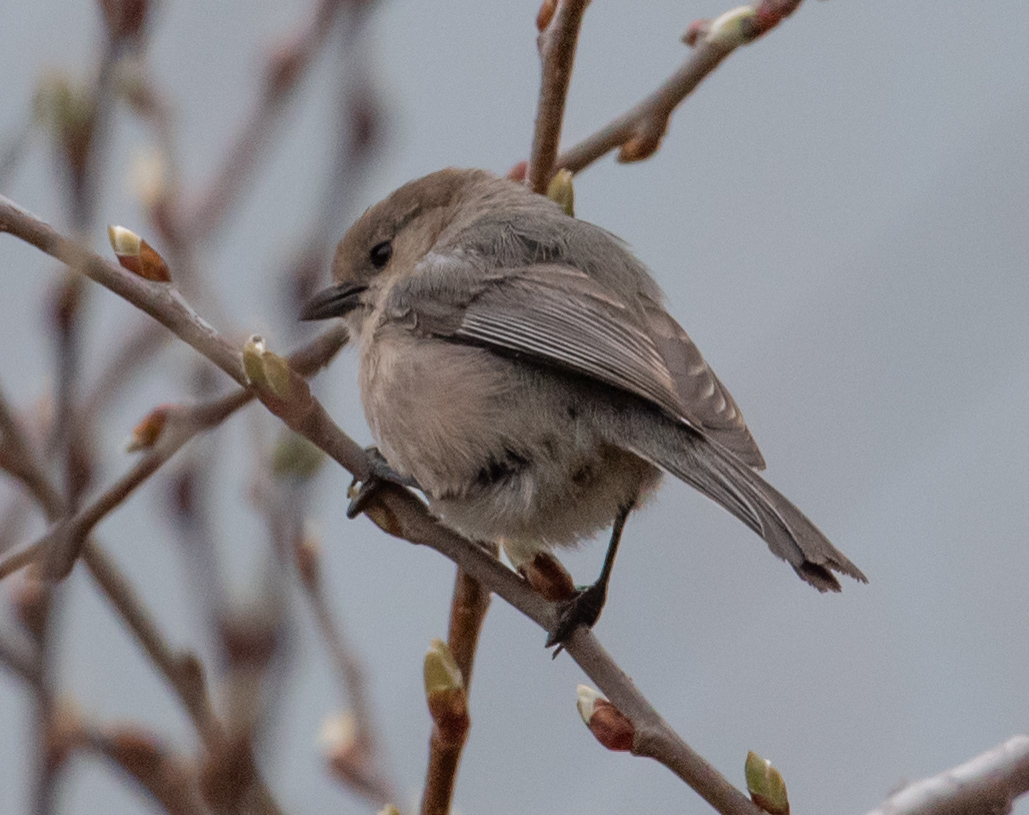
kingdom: Animalia
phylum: Chordata
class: Aves
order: Passeriformes
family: Aegithalidae
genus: Psaltriparus
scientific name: Psaltriparus minimus
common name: American bushtit
